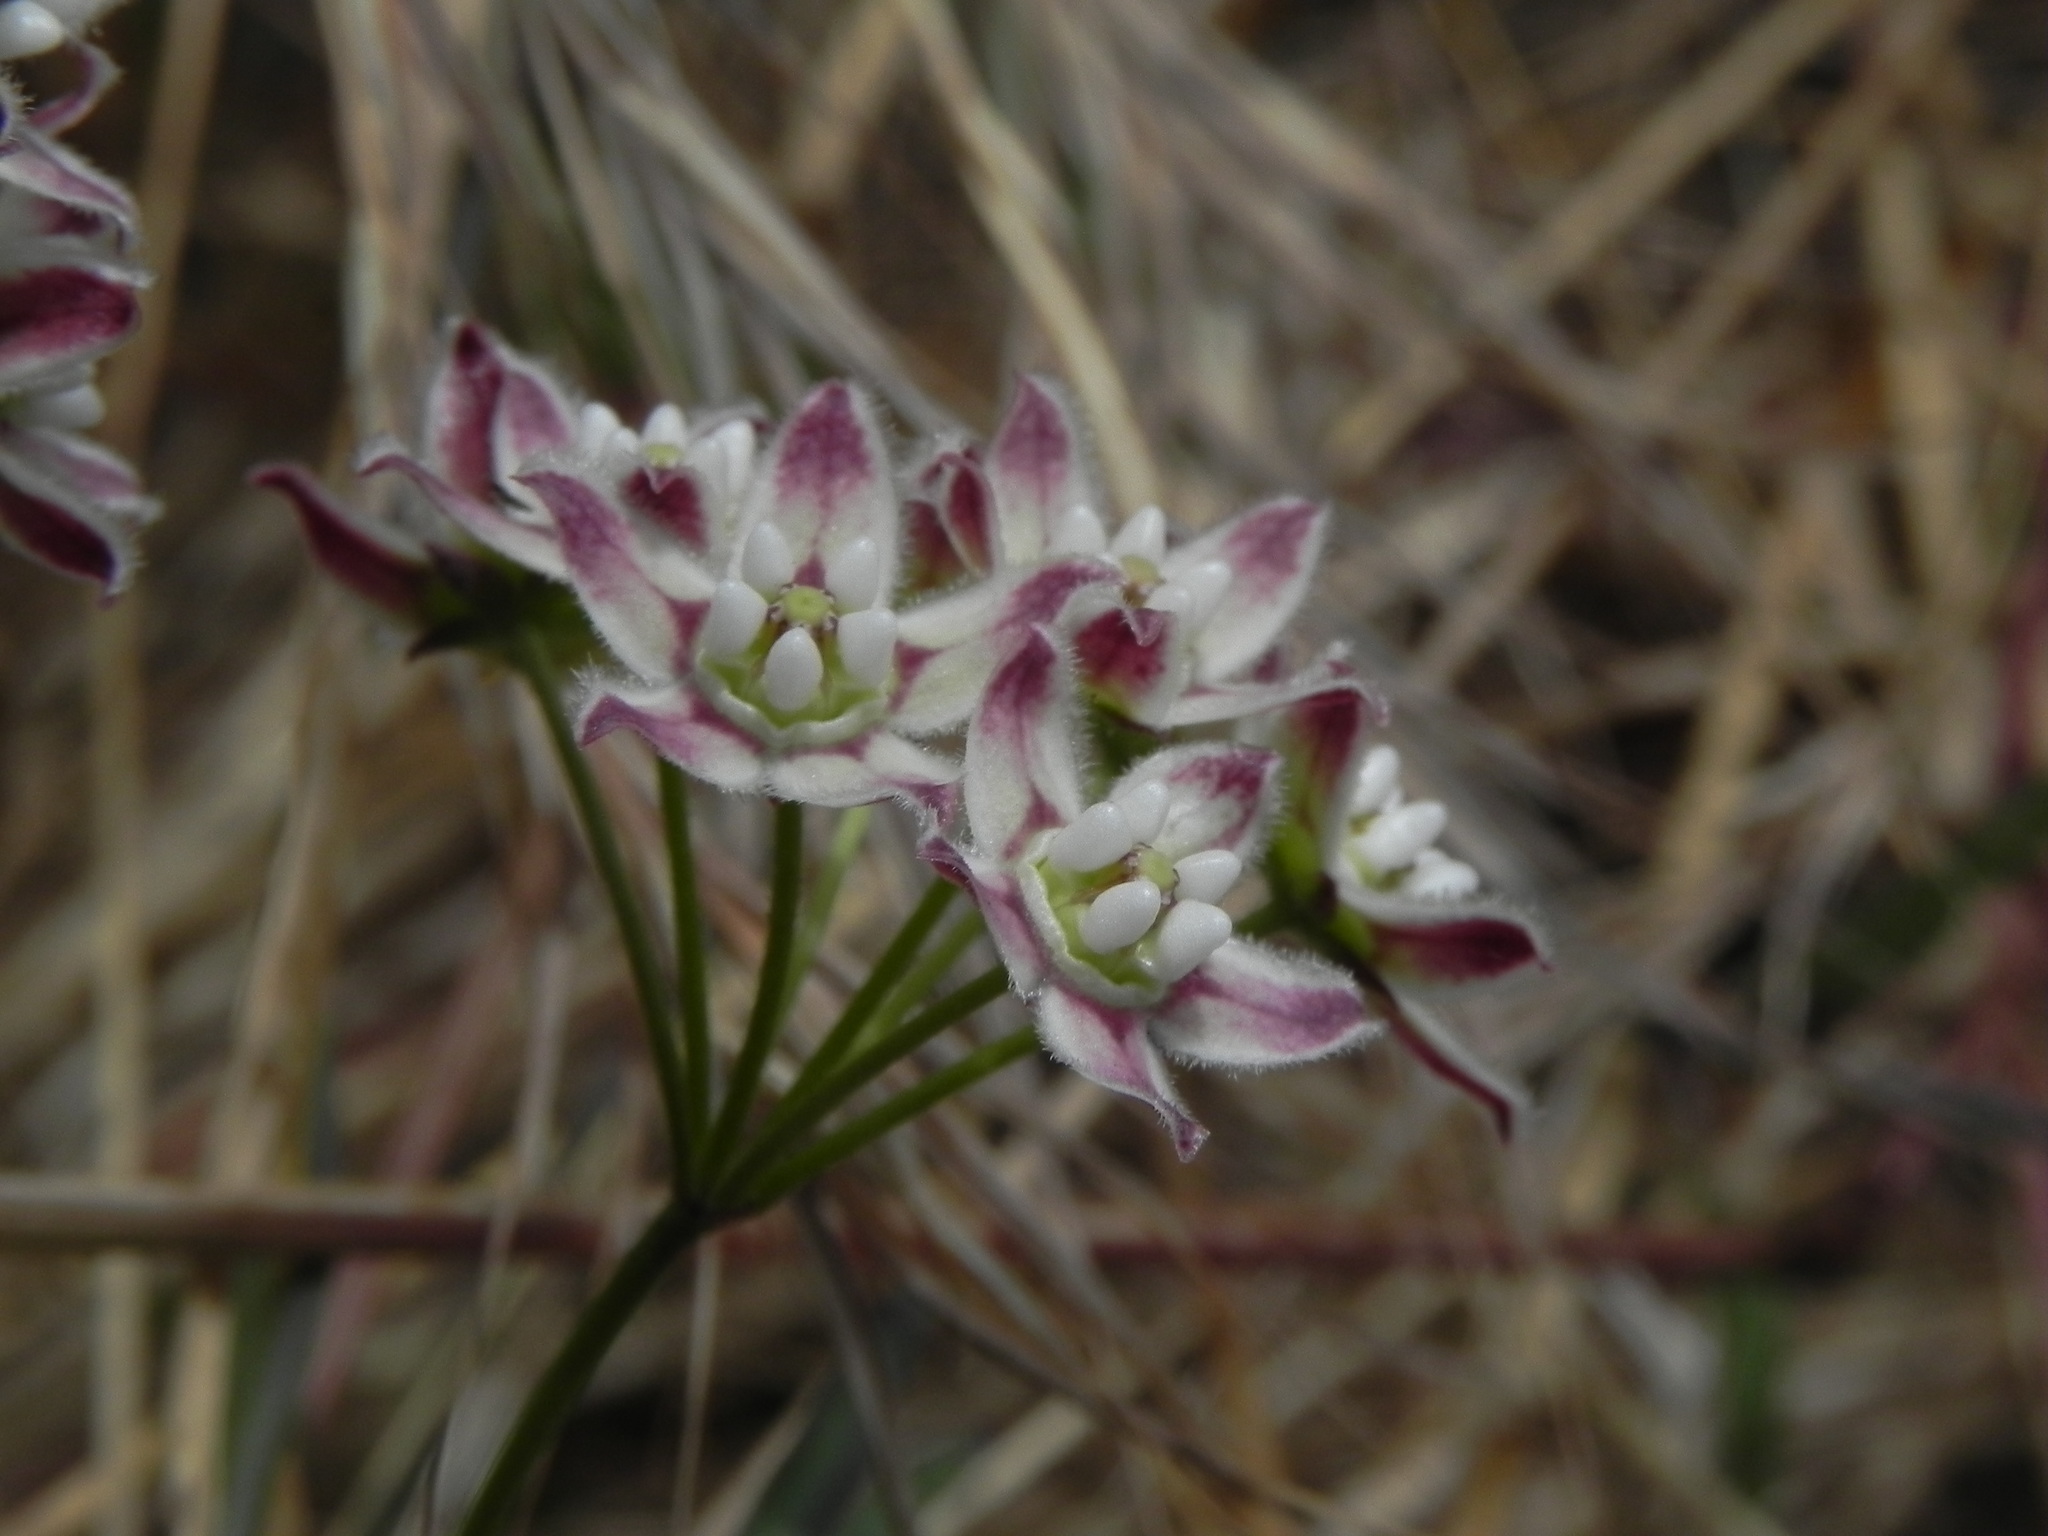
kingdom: Plantae
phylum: Tracheophyta
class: Magnoliopsida
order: Gentianales
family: Apocynaceae
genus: Funastrum
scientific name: Funastrum heterophyllum
